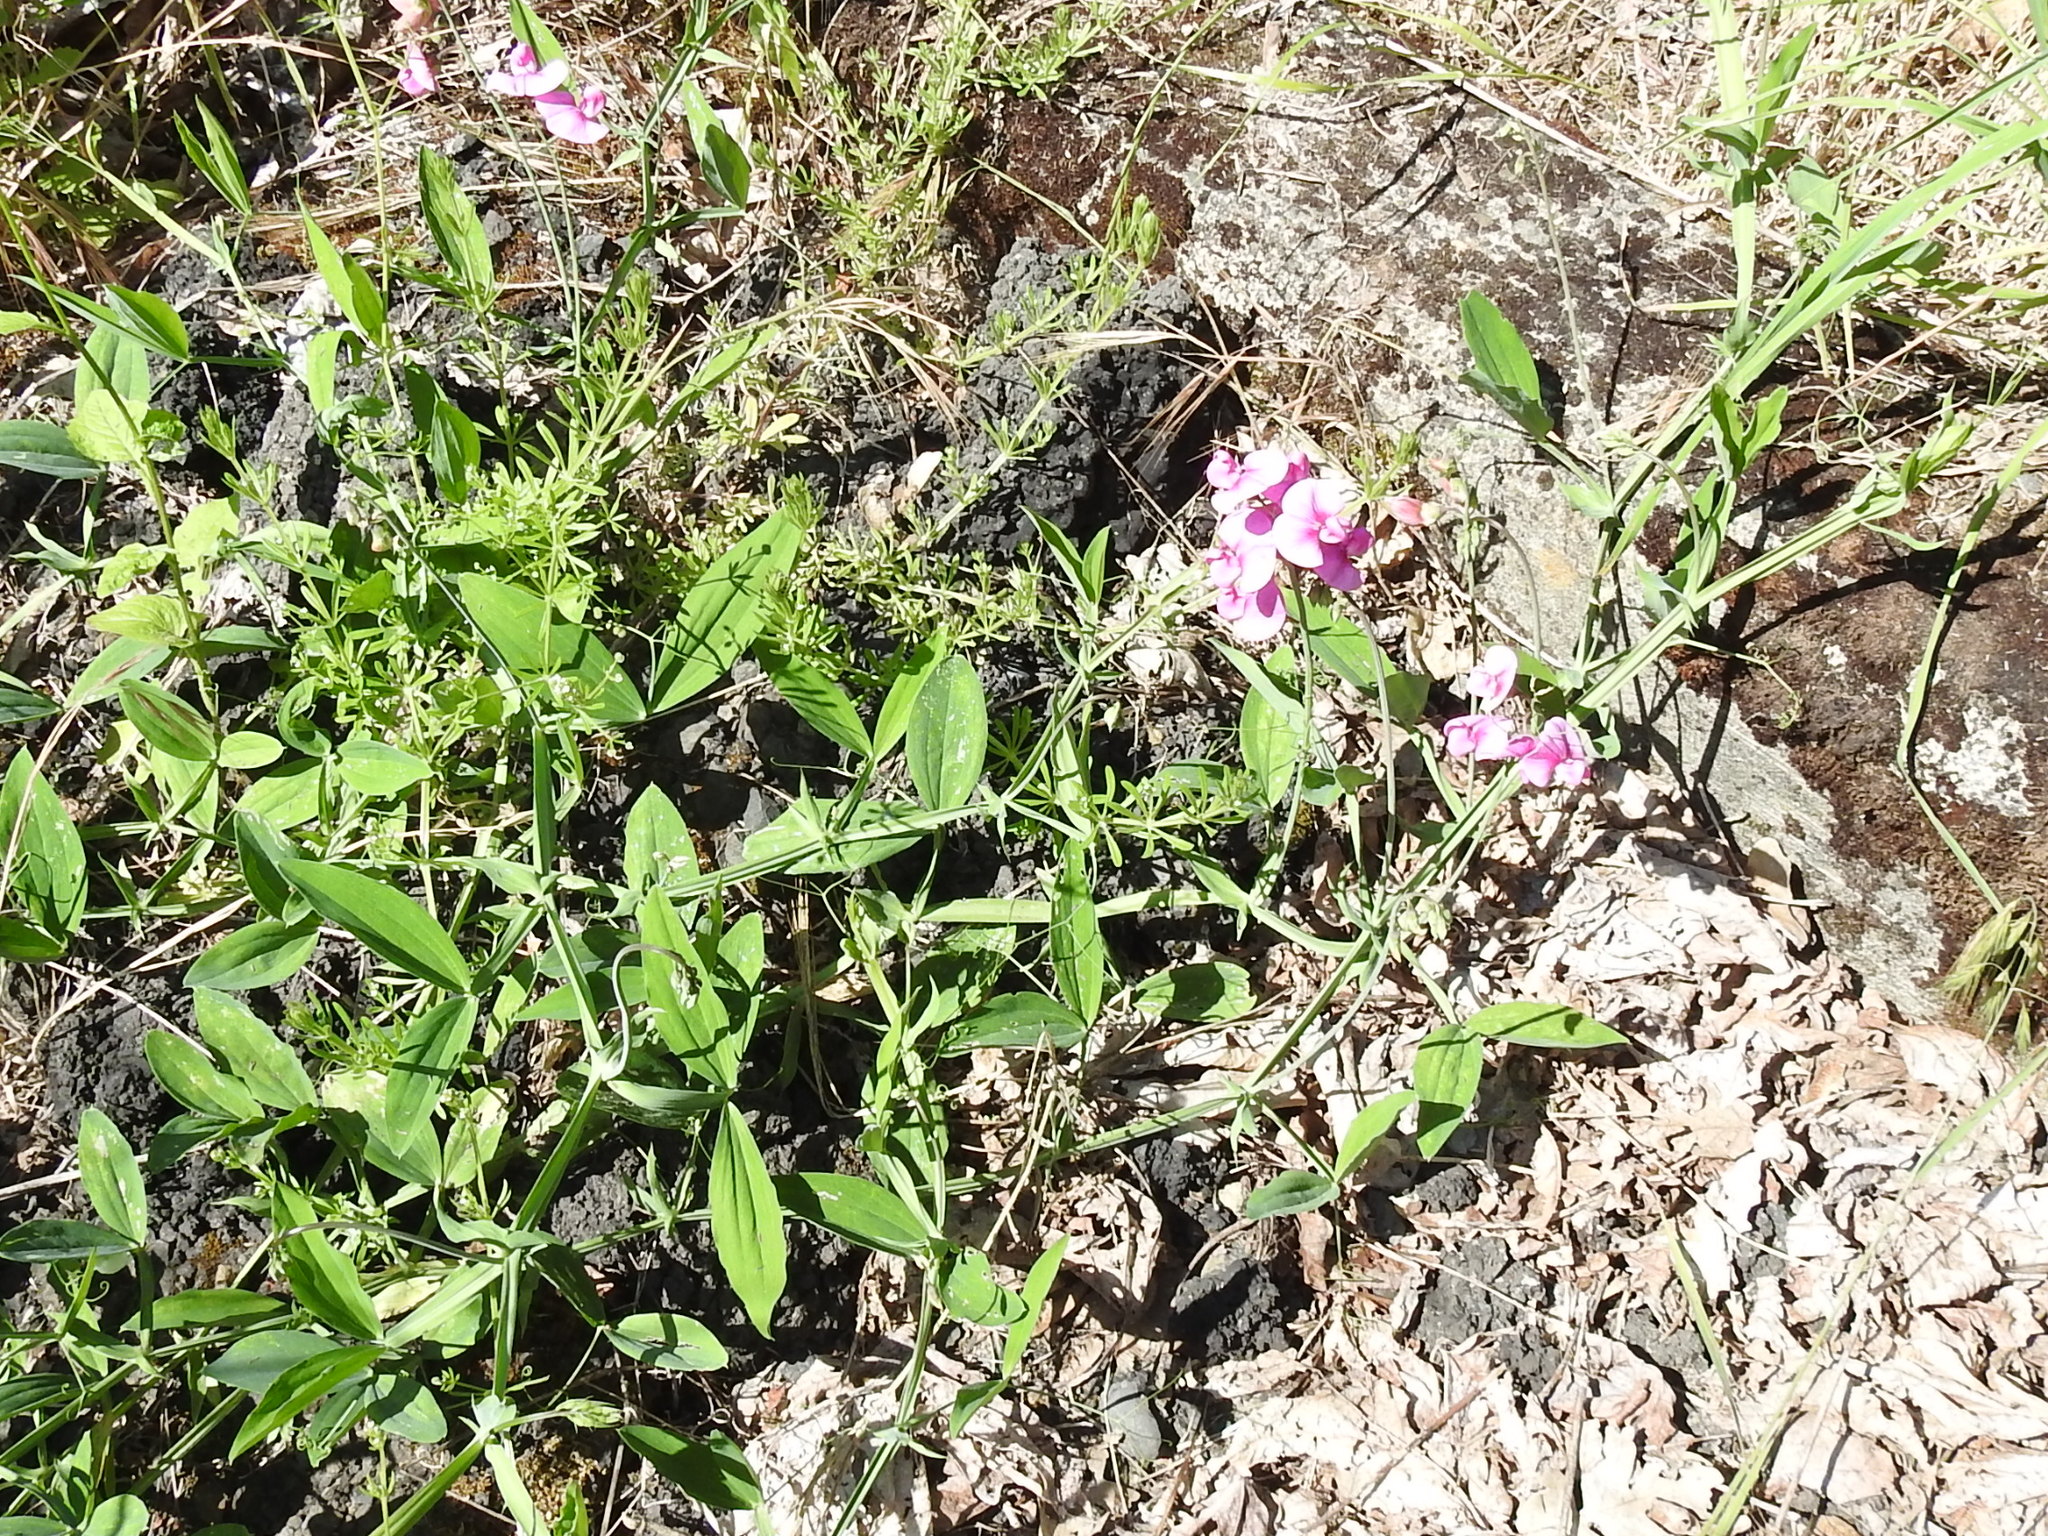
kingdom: Plantae
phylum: Tracheophyta
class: Magnoliopsida
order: Fabales
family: Fabaceae
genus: Lathyrus
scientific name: Lathyrus latifolius
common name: Perennial pea
